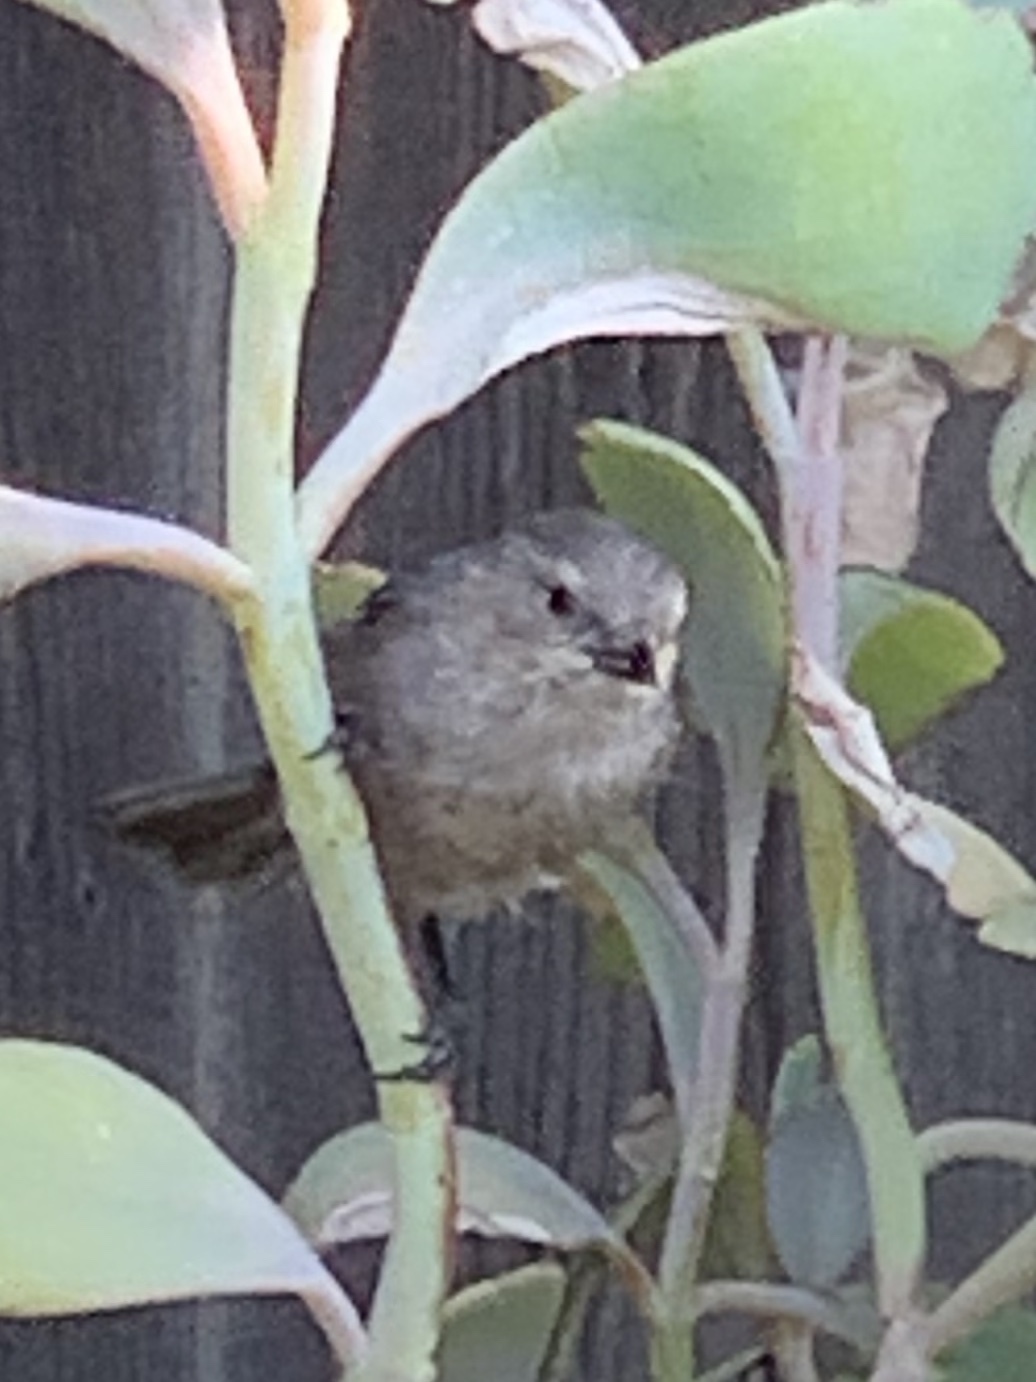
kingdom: Animalia
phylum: Chordata
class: Aves
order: Passeriformes
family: Aegithalidae
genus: Psaltriparus
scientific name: Psaltriparus minimus
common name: American bushtit
